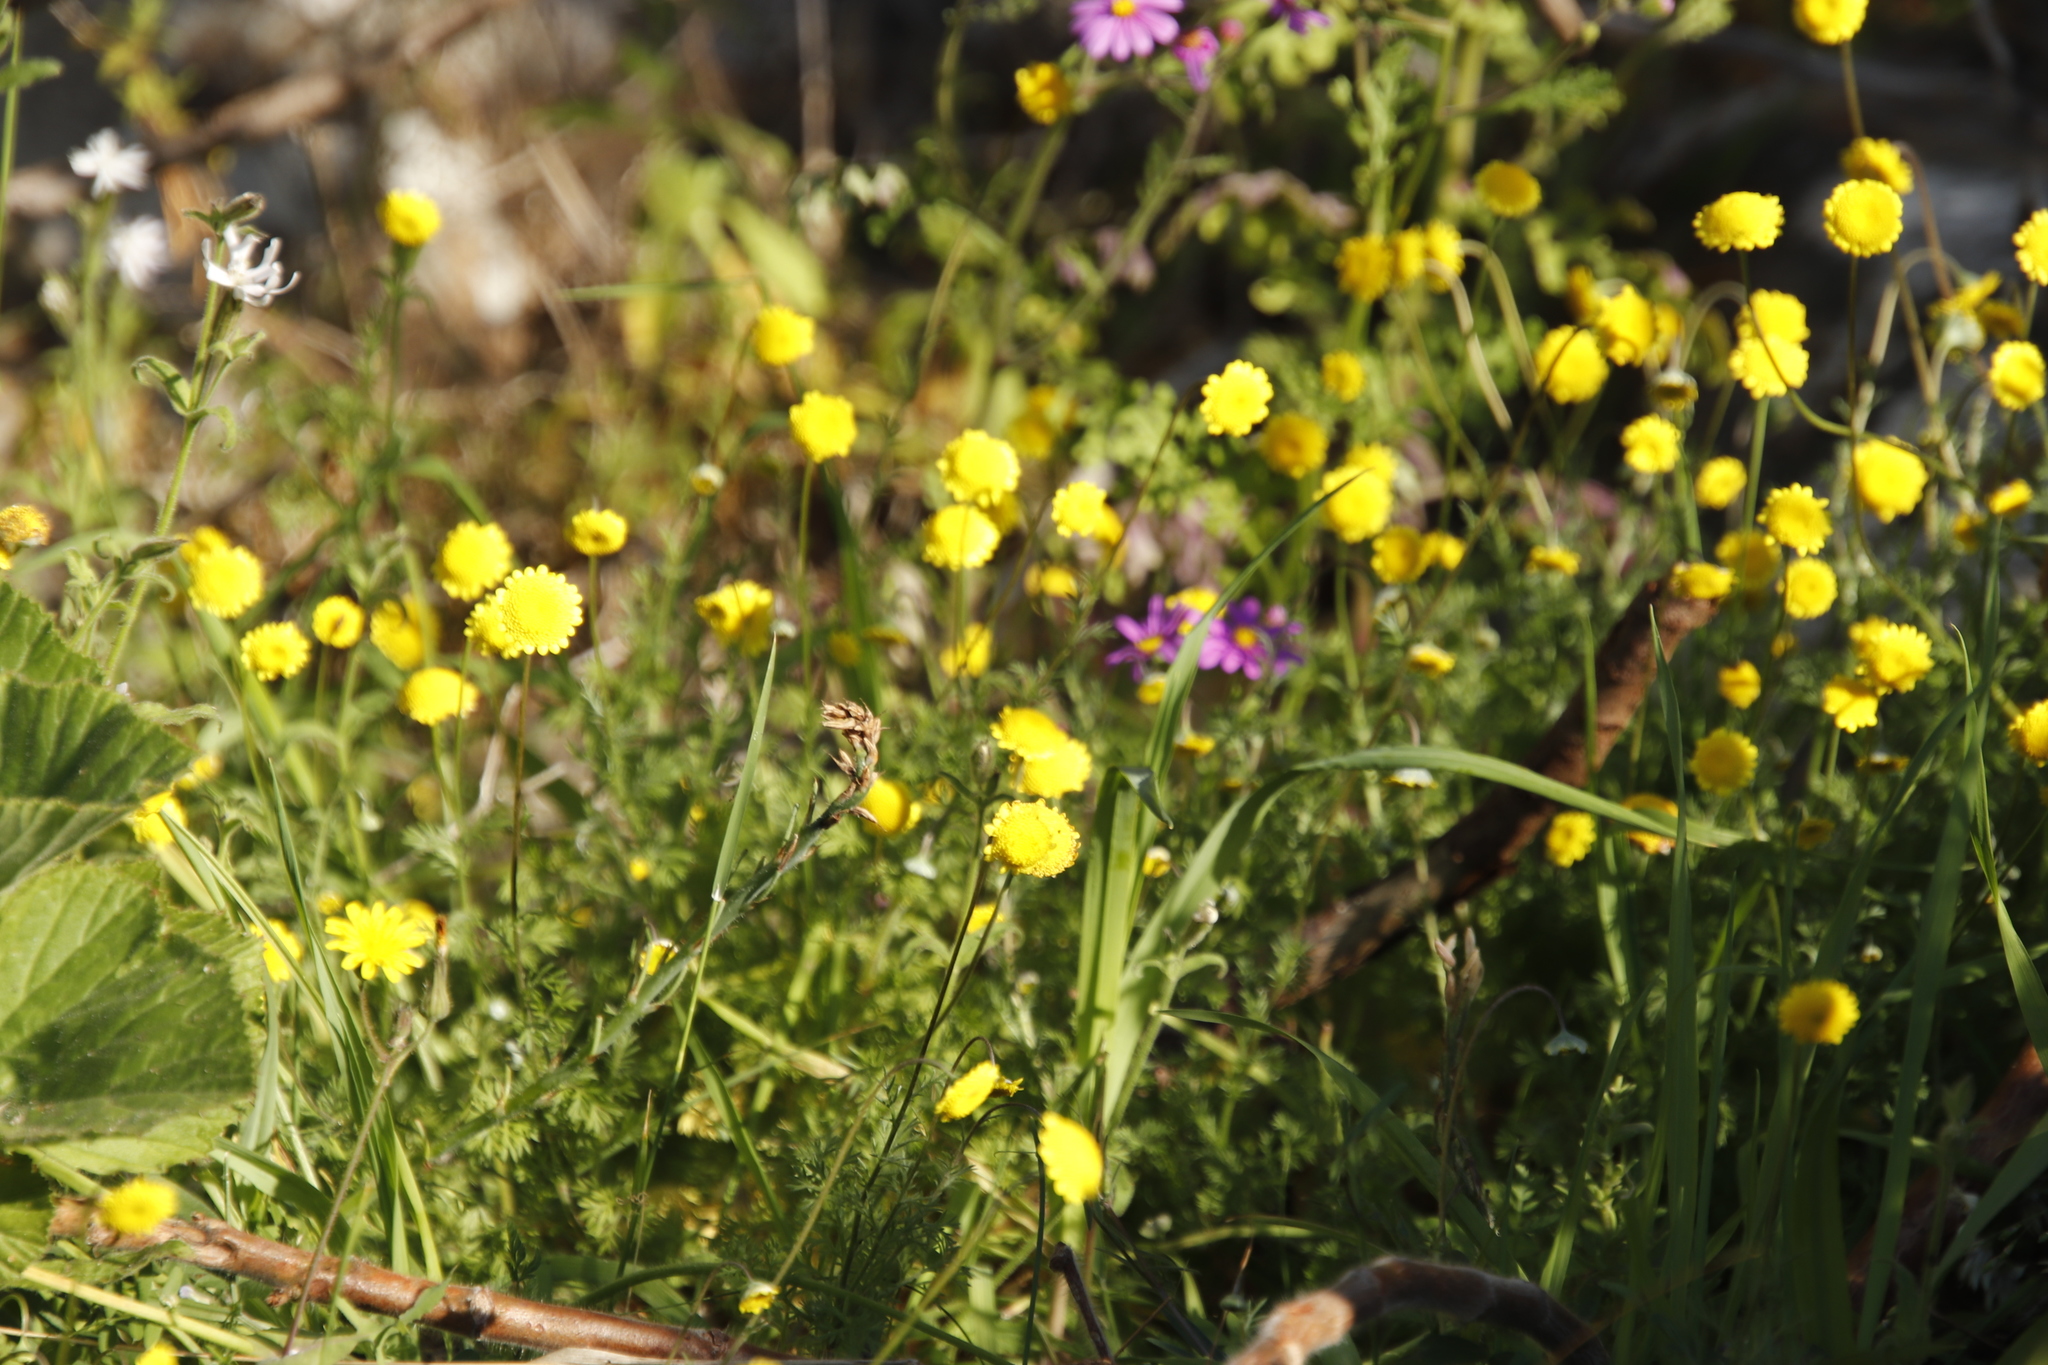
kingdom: Plantae
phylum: Tracheophyta
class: Magnoliopsida
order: Asterales
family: Asteraceae
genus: Cotula
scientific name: Cotula pruinosa
